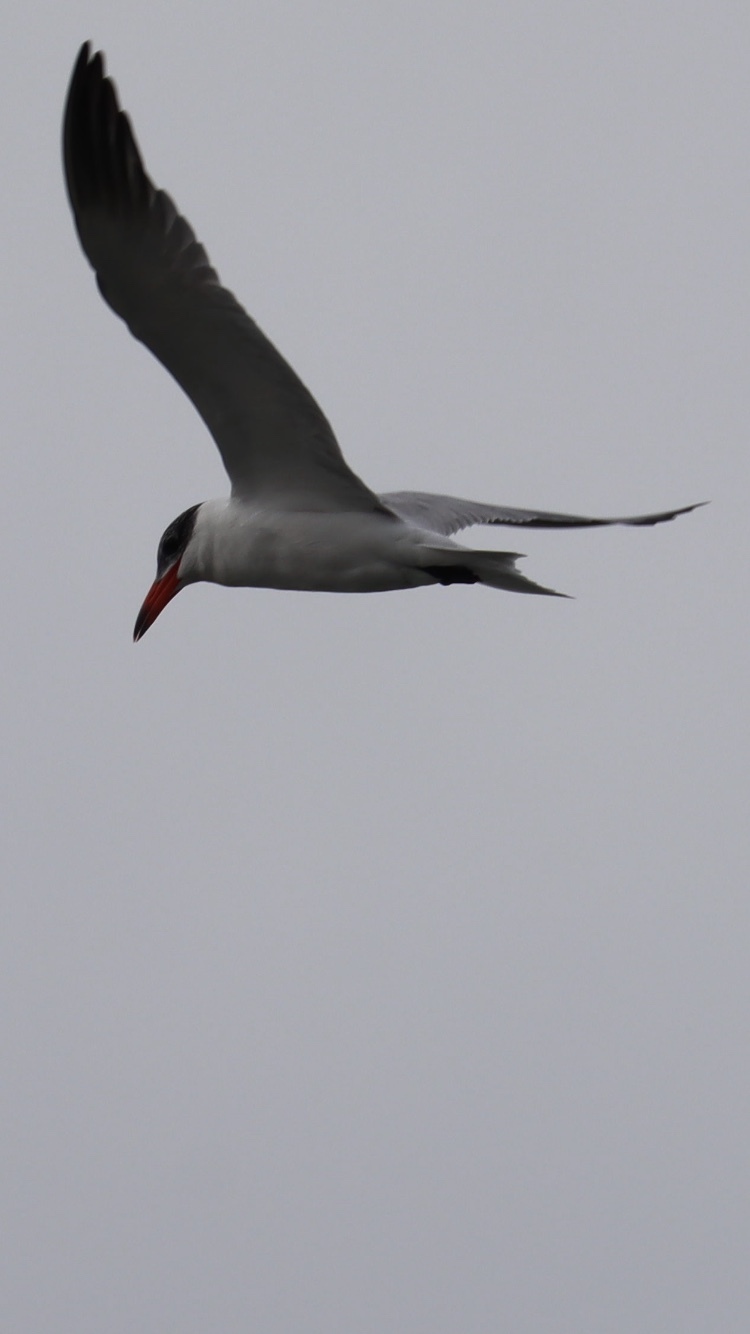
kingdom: Animalia
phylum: Chordata
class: Aves
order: Charadriiformes
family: Laridae
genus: Hydroprogne
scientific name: Hydroprogne caspia
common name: Caspian tern
